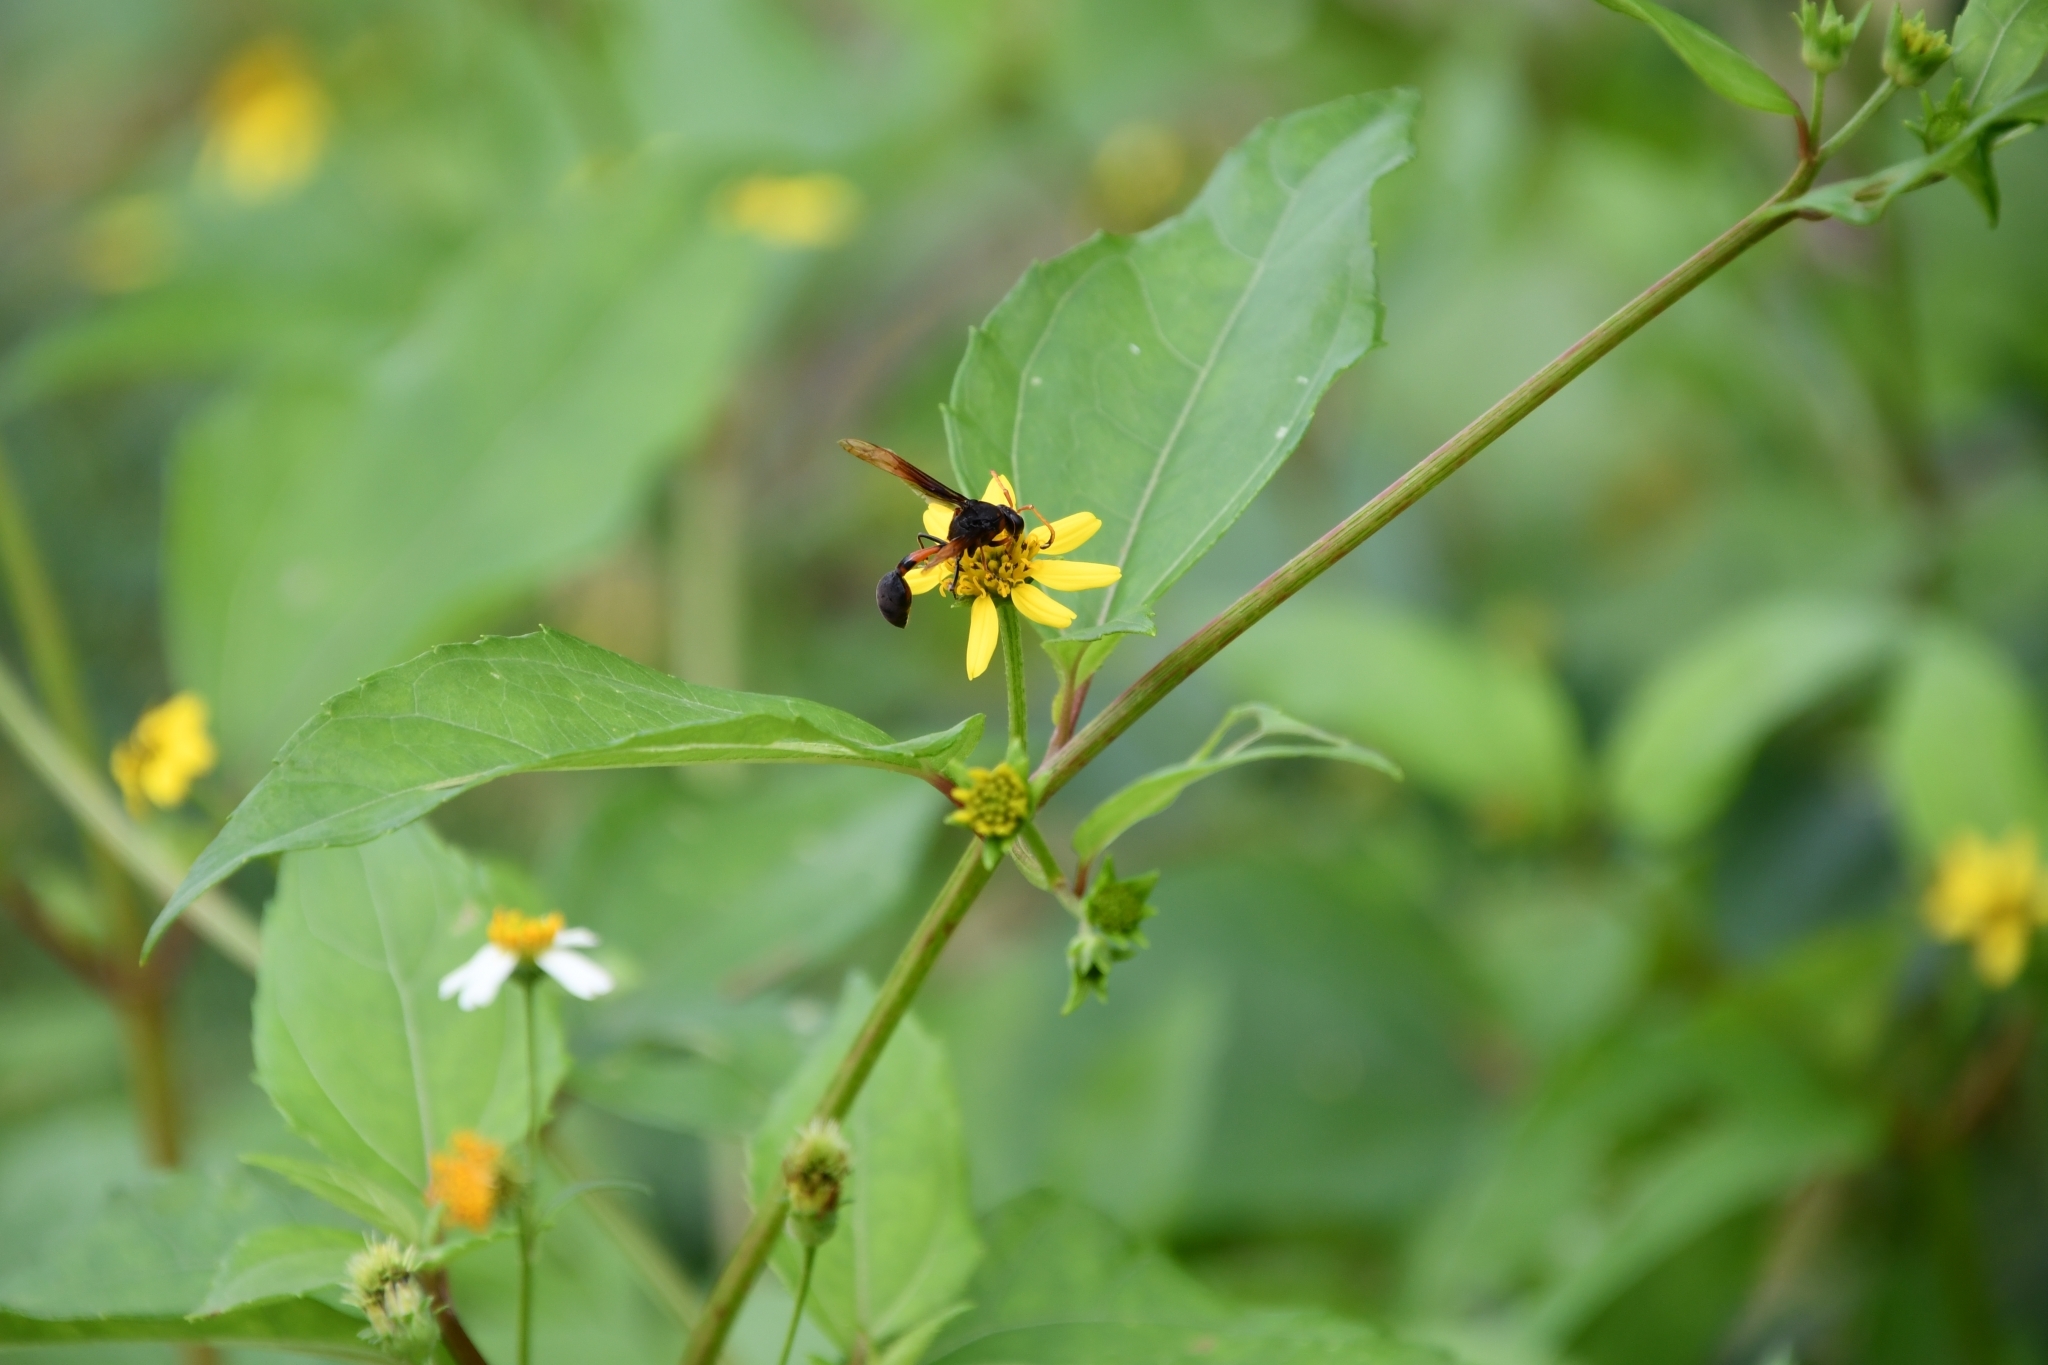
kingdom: Animalia
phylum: Arthropoda
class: Insecta
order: Hymenoptera
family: Eumenidae
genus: Delta
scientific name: Delta pyriforme
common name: Wasp
